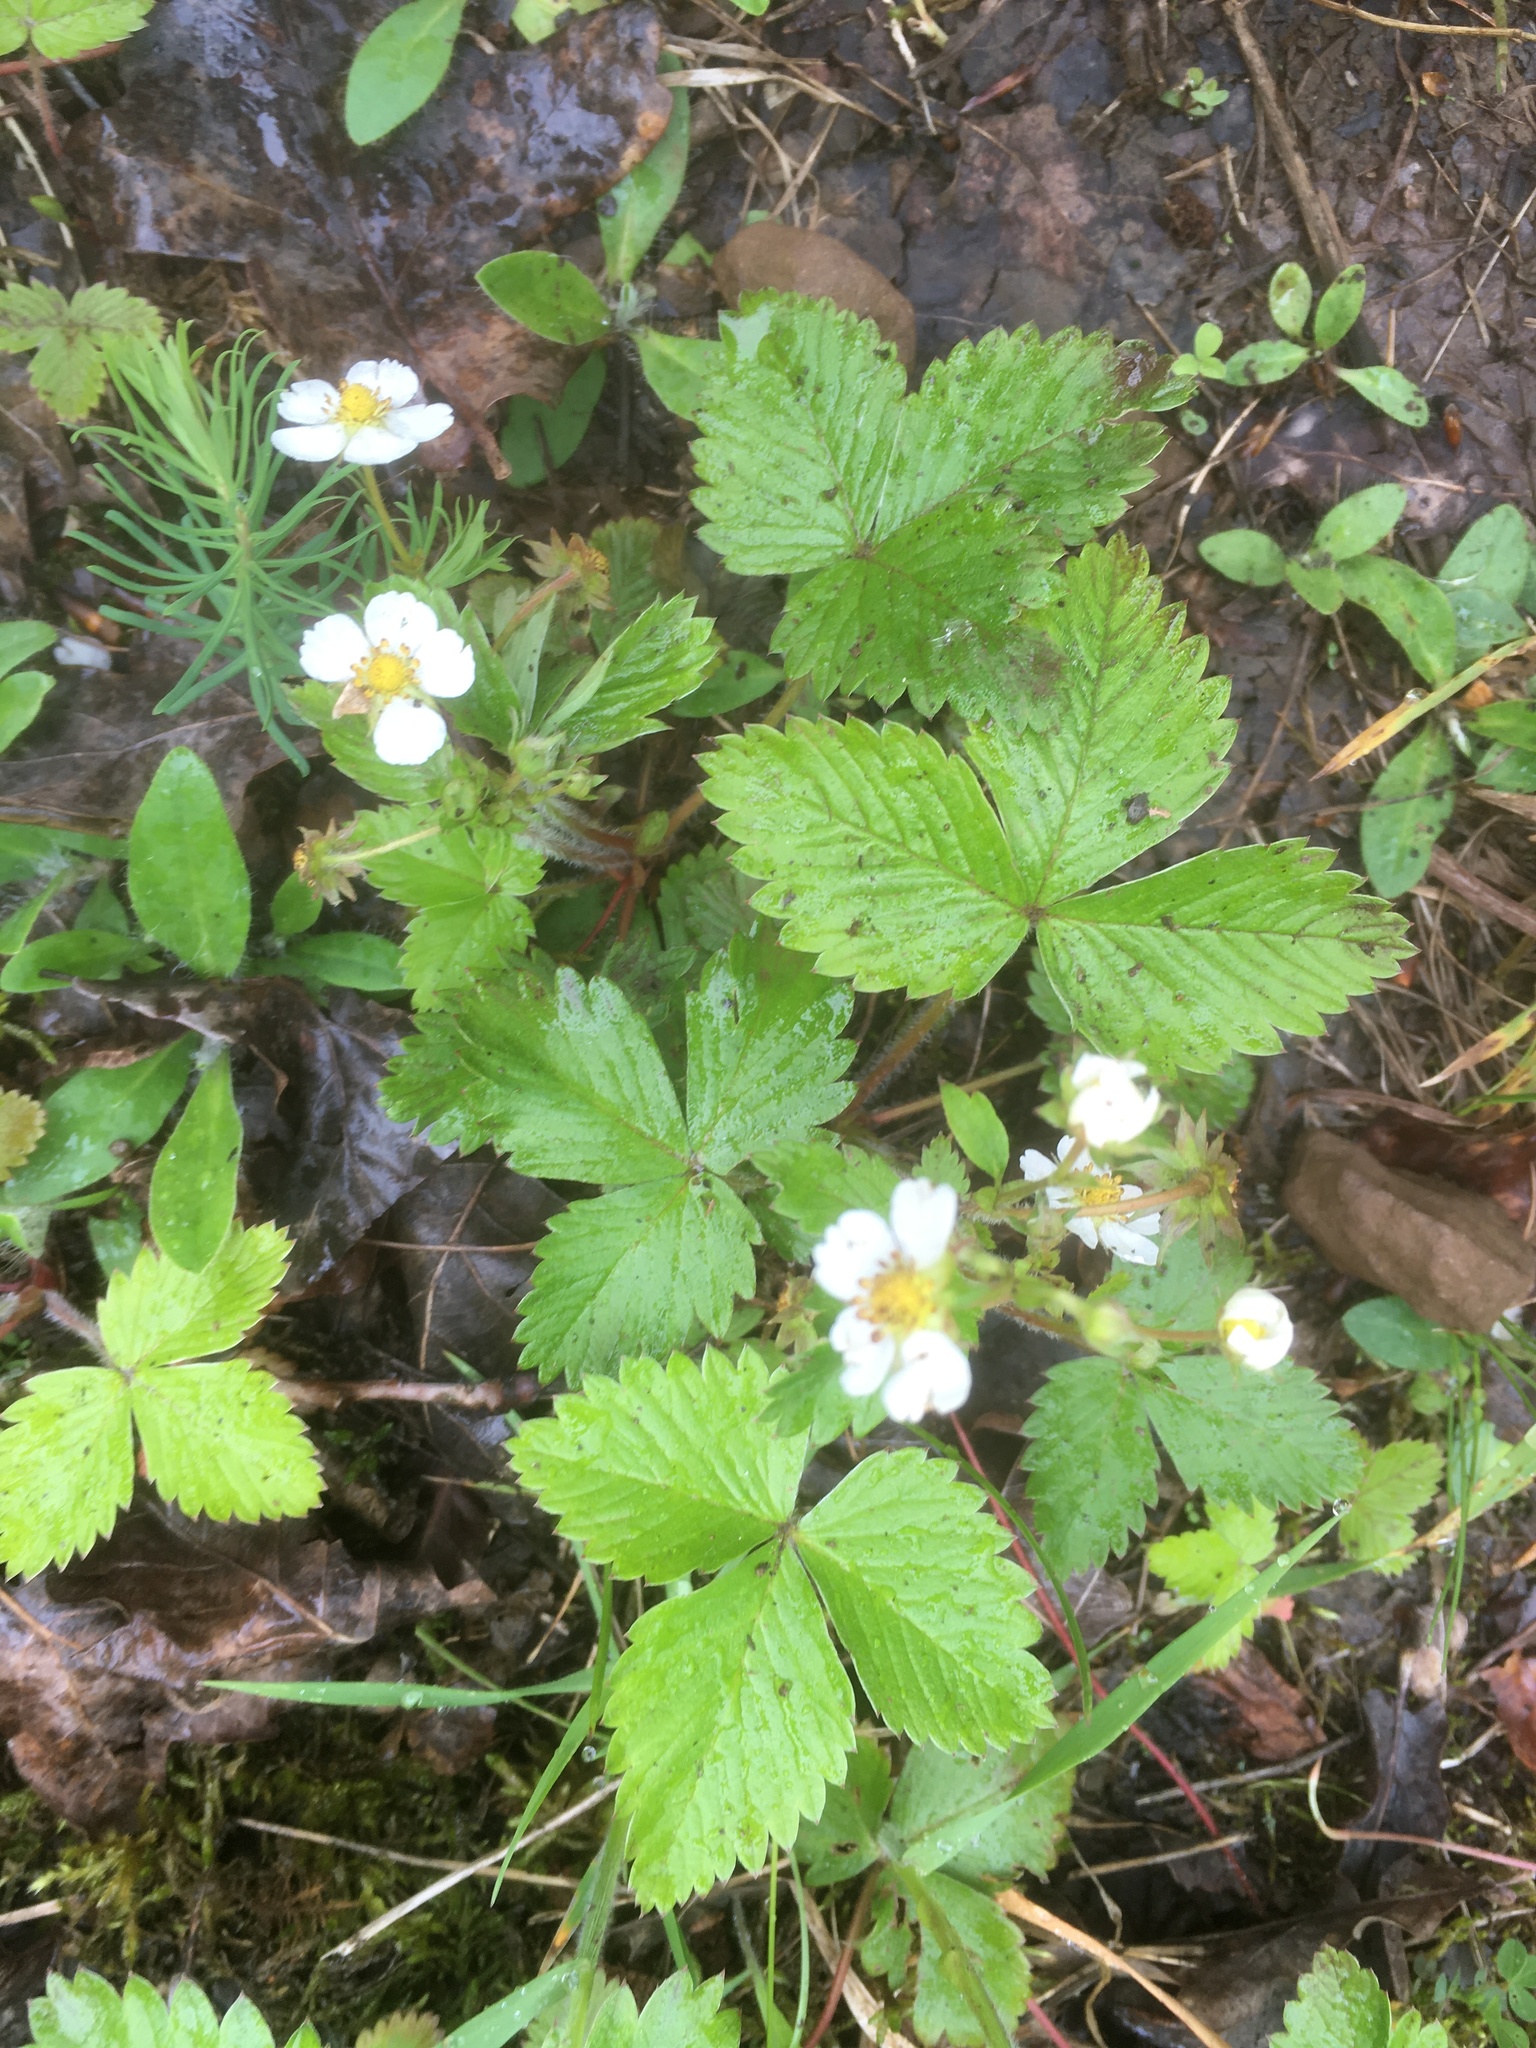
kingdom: Plantae
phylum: Tracheophyta
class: Magnoliopsida
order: Rosales
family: Rosaceae
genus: Fragaria
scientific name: Fragaria vesca
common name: Wild strawberry
